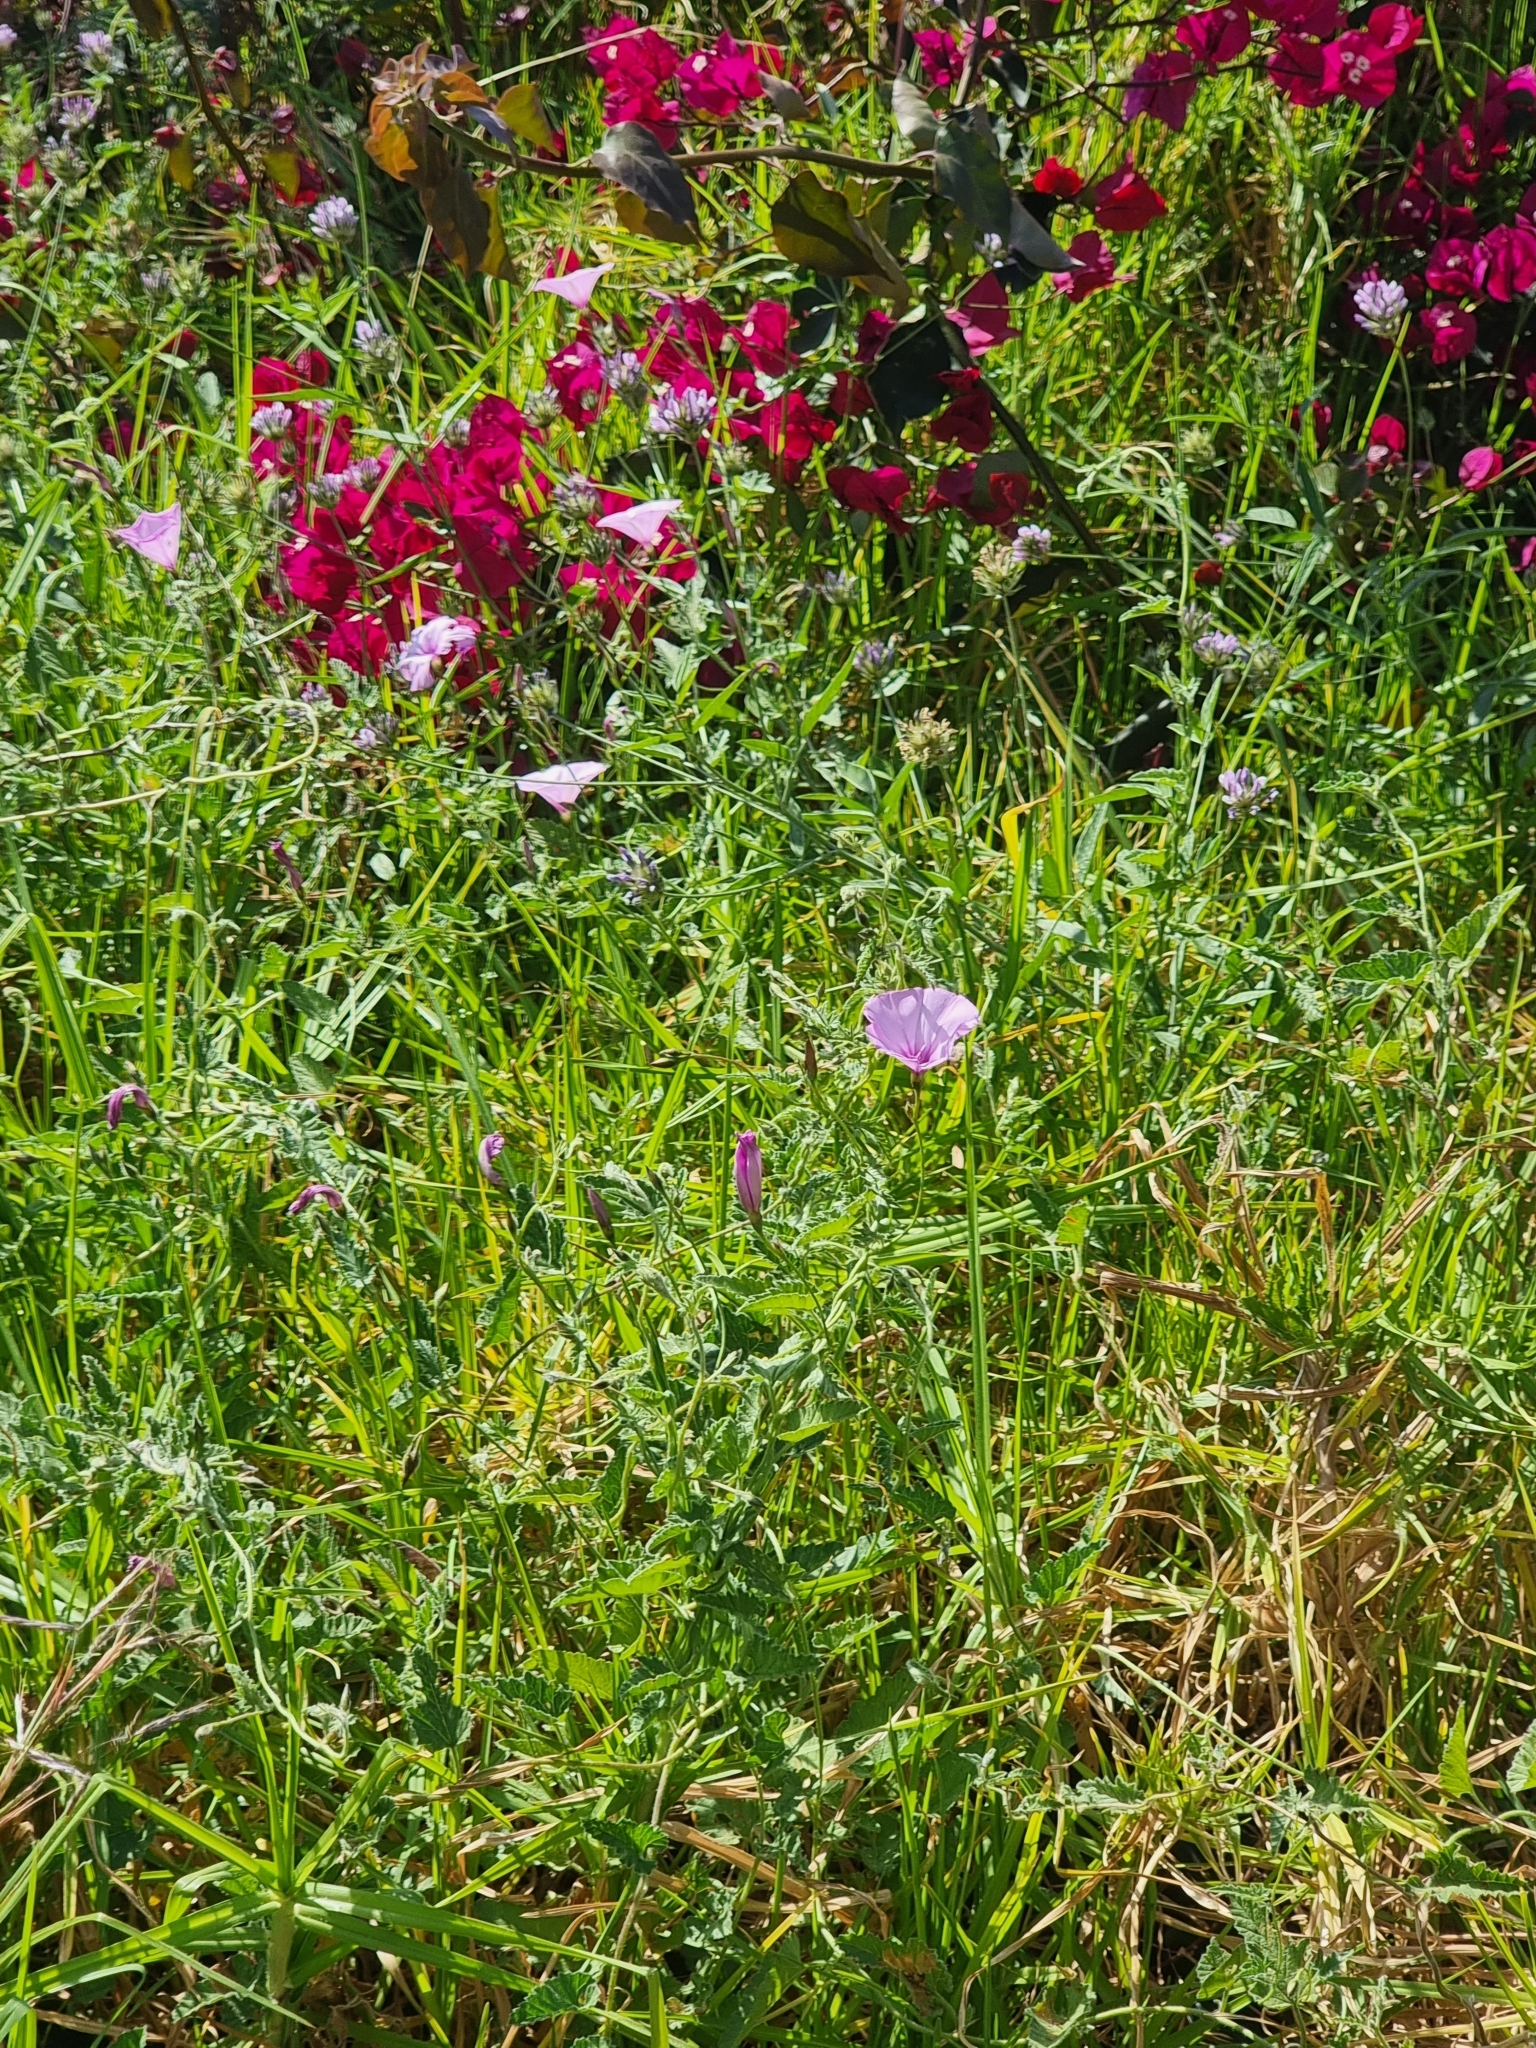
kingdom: Plantae
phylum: Tracheophyta
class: Magnoliopsida
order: Solanales
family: Convolvulaceae
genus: Convolvulus
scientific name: Convolvulus althaeoides
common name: Mallow bindweed
